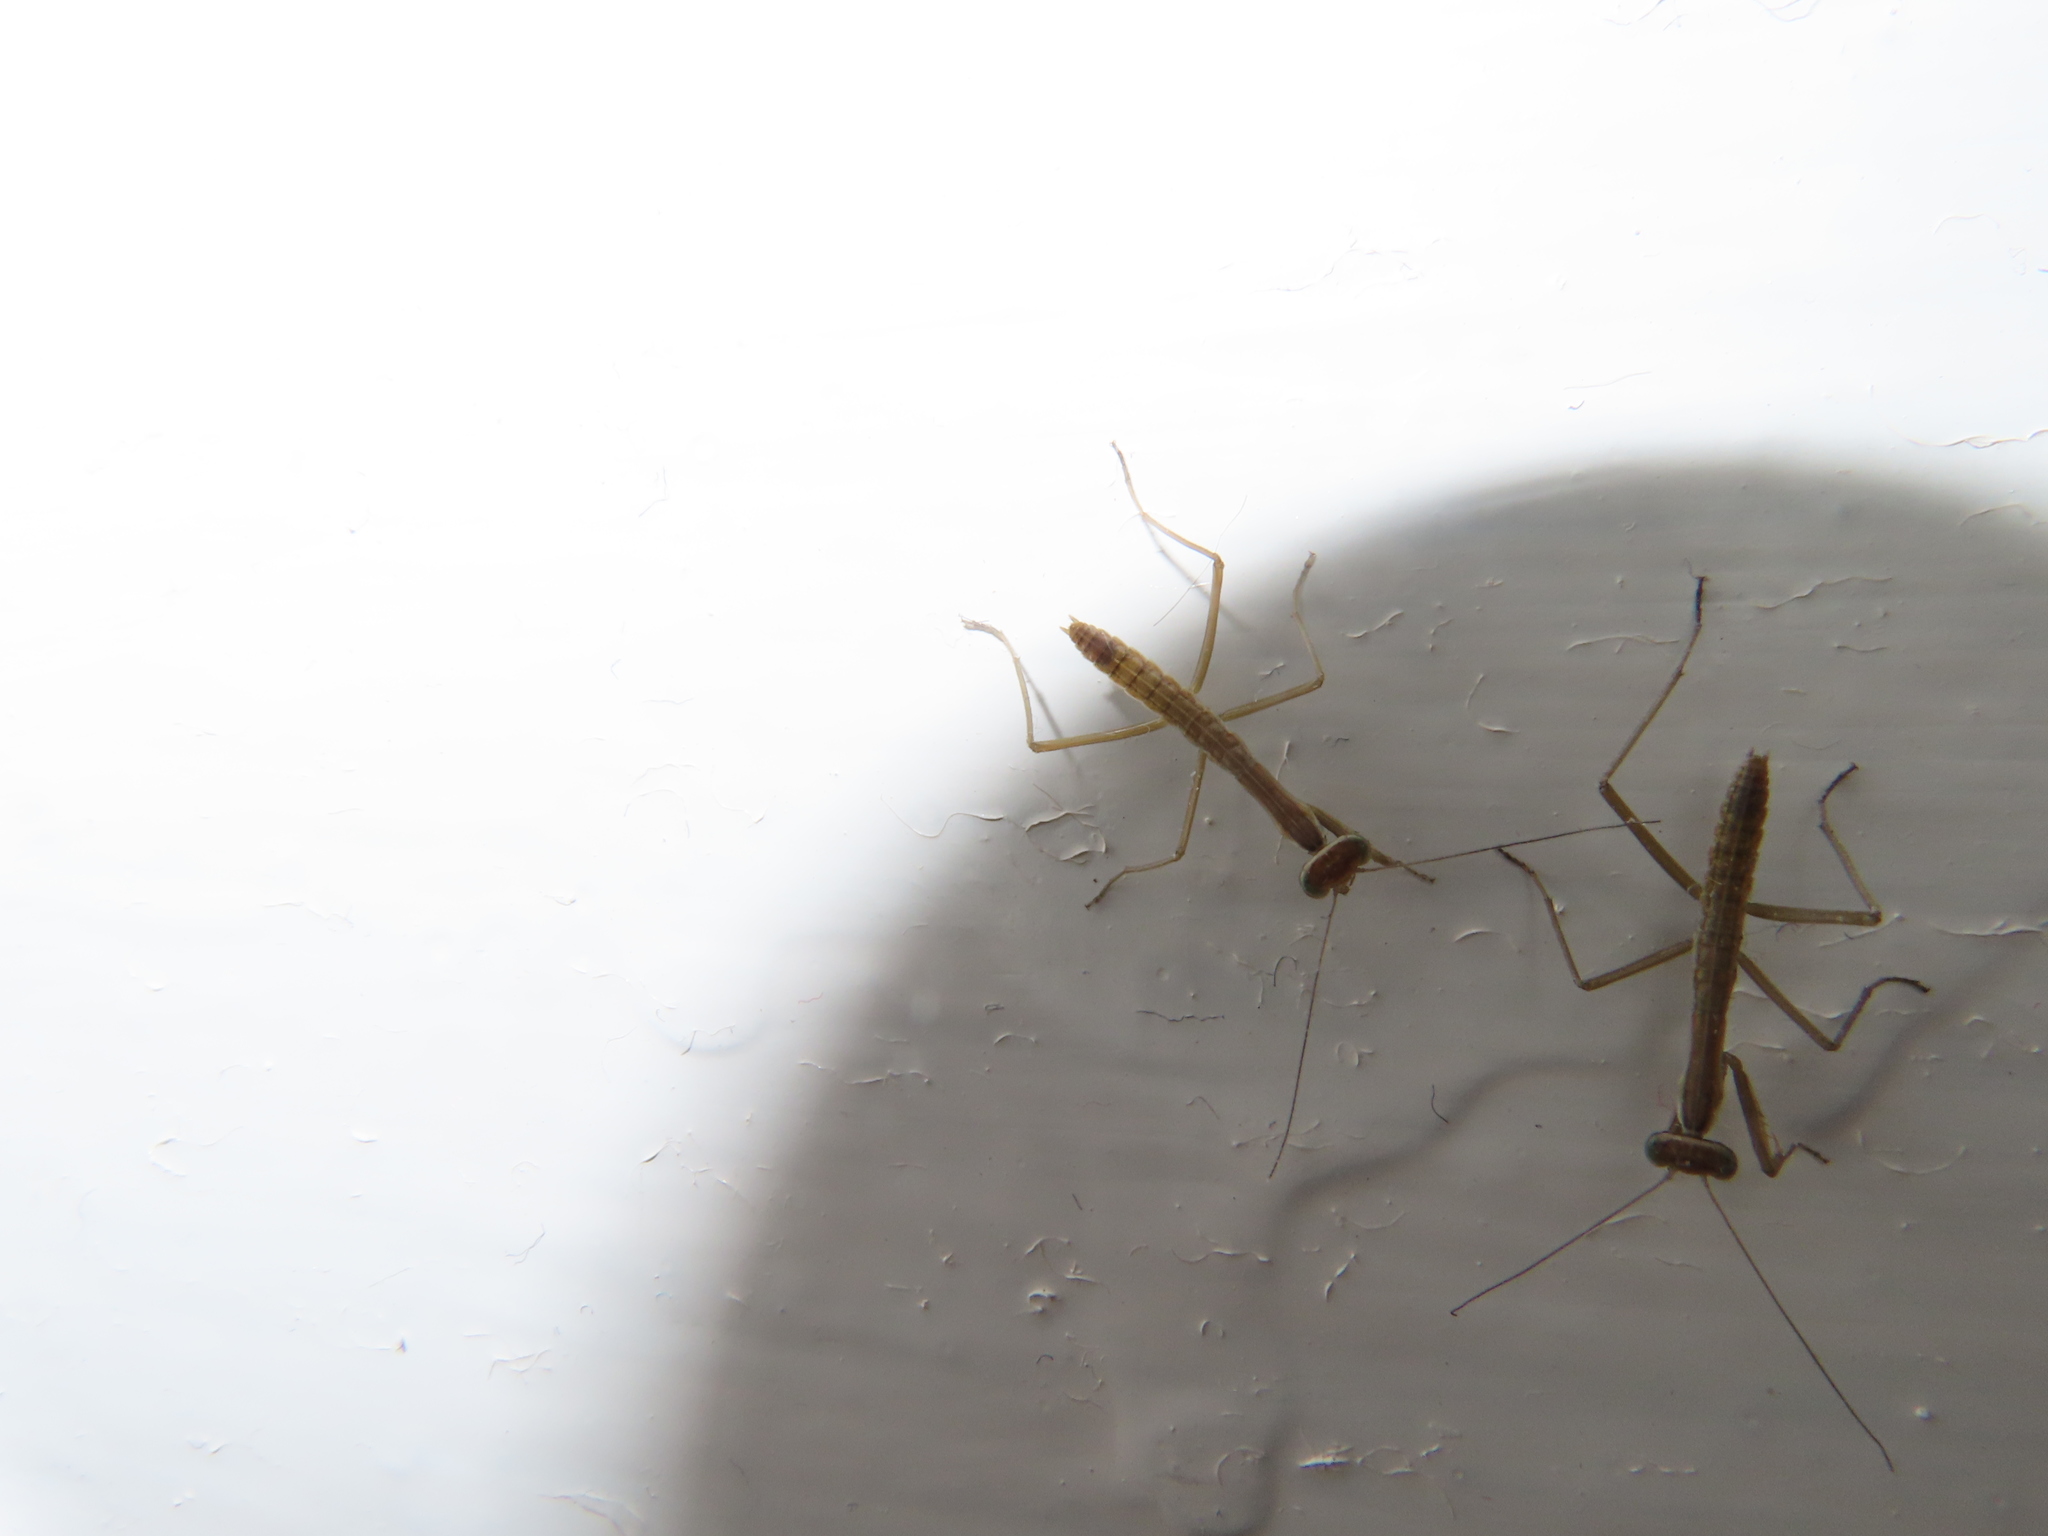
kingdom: Animalia
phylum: Arthropoda
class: Insecta
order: Mantodea
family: Mantidae
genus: Tenodera
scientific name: Tenodera sinensis
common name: Chinese mantis
